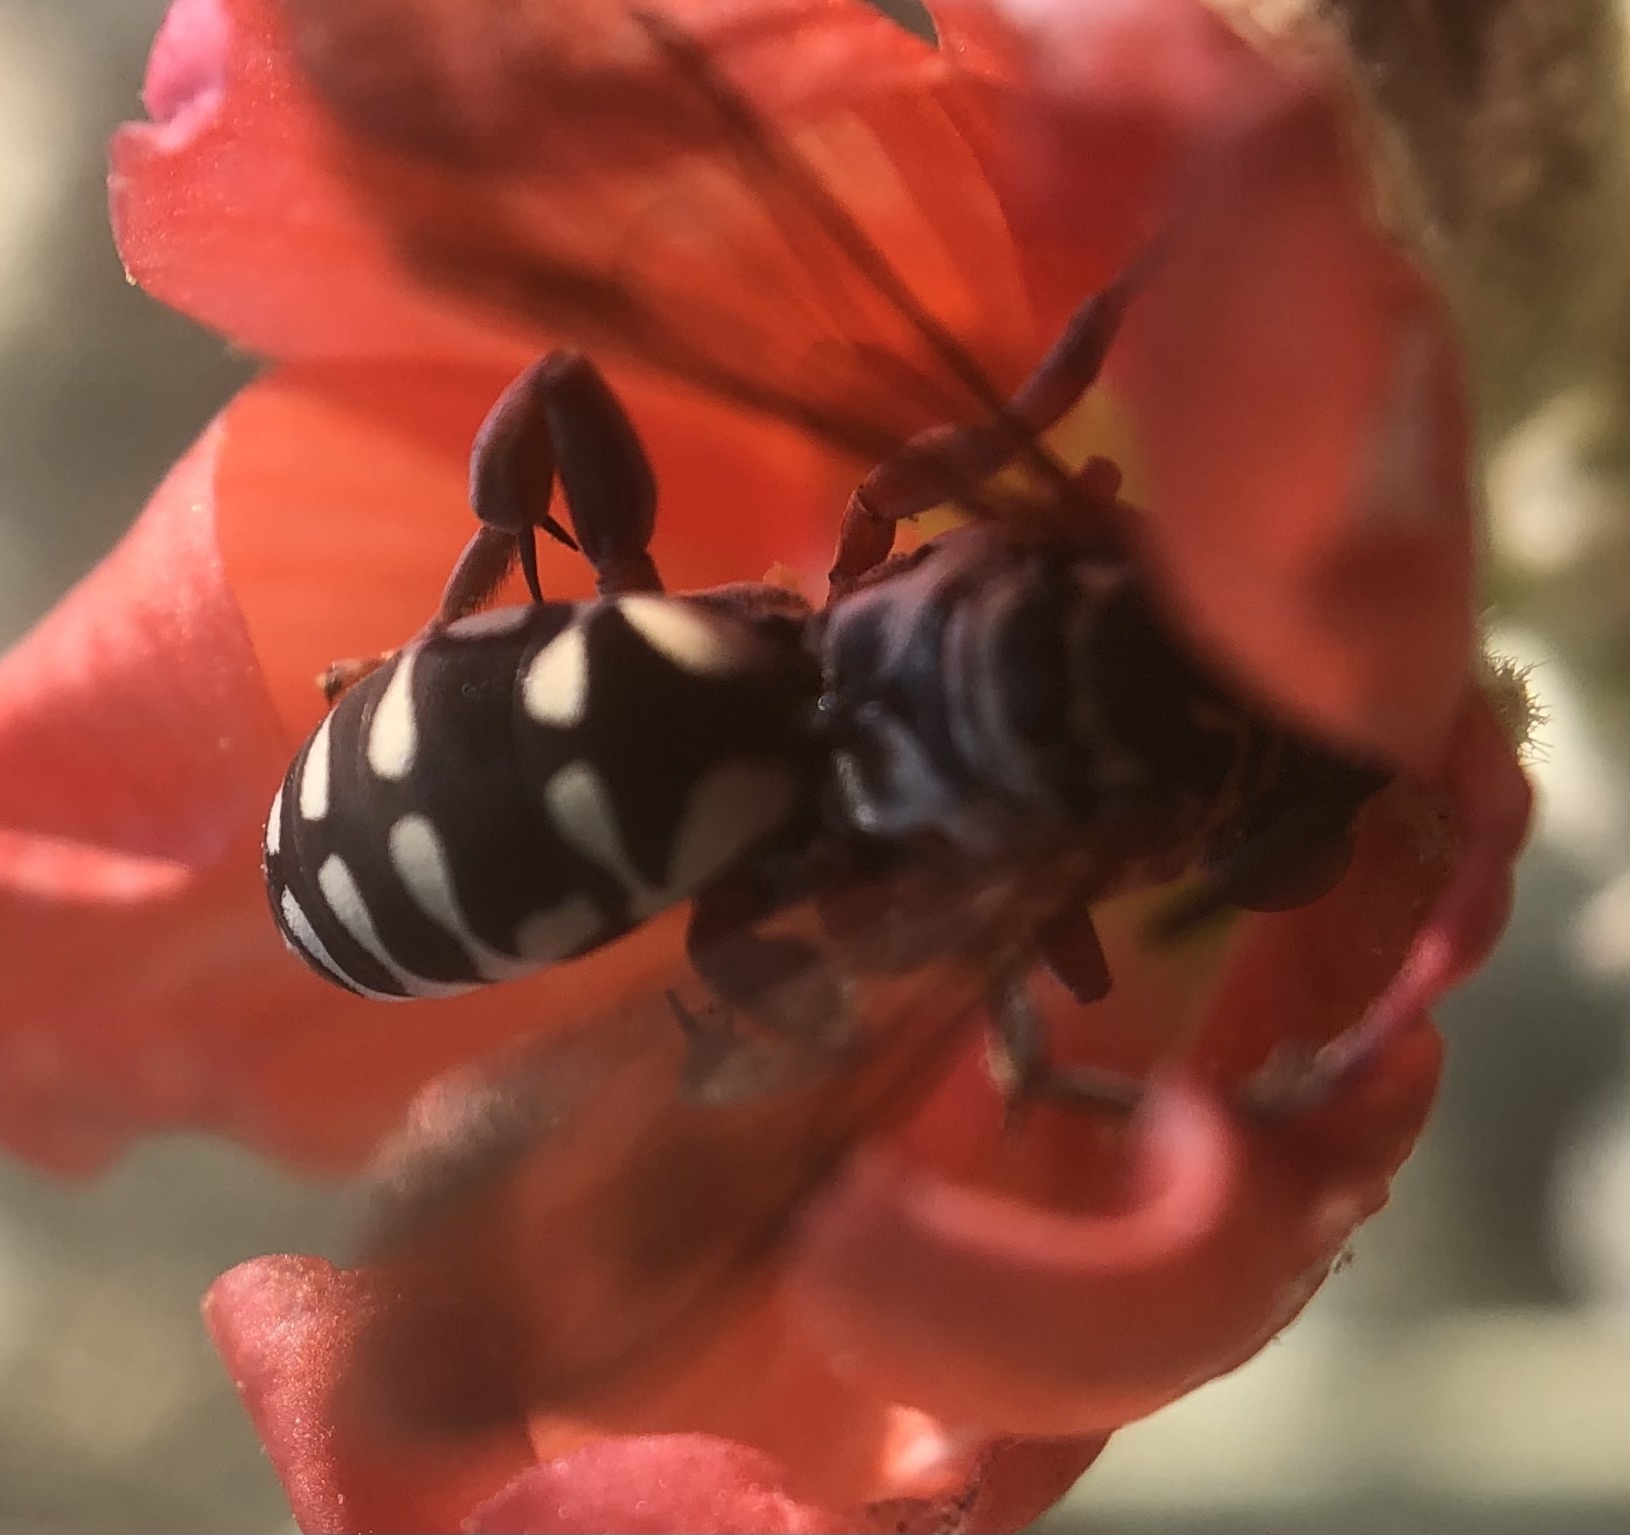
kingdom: Animalia
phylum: Arthropoda
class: Insecta
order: Hymenoptera
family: Apidae
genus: Triepeolus
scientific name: Triepeolus verbesinae
